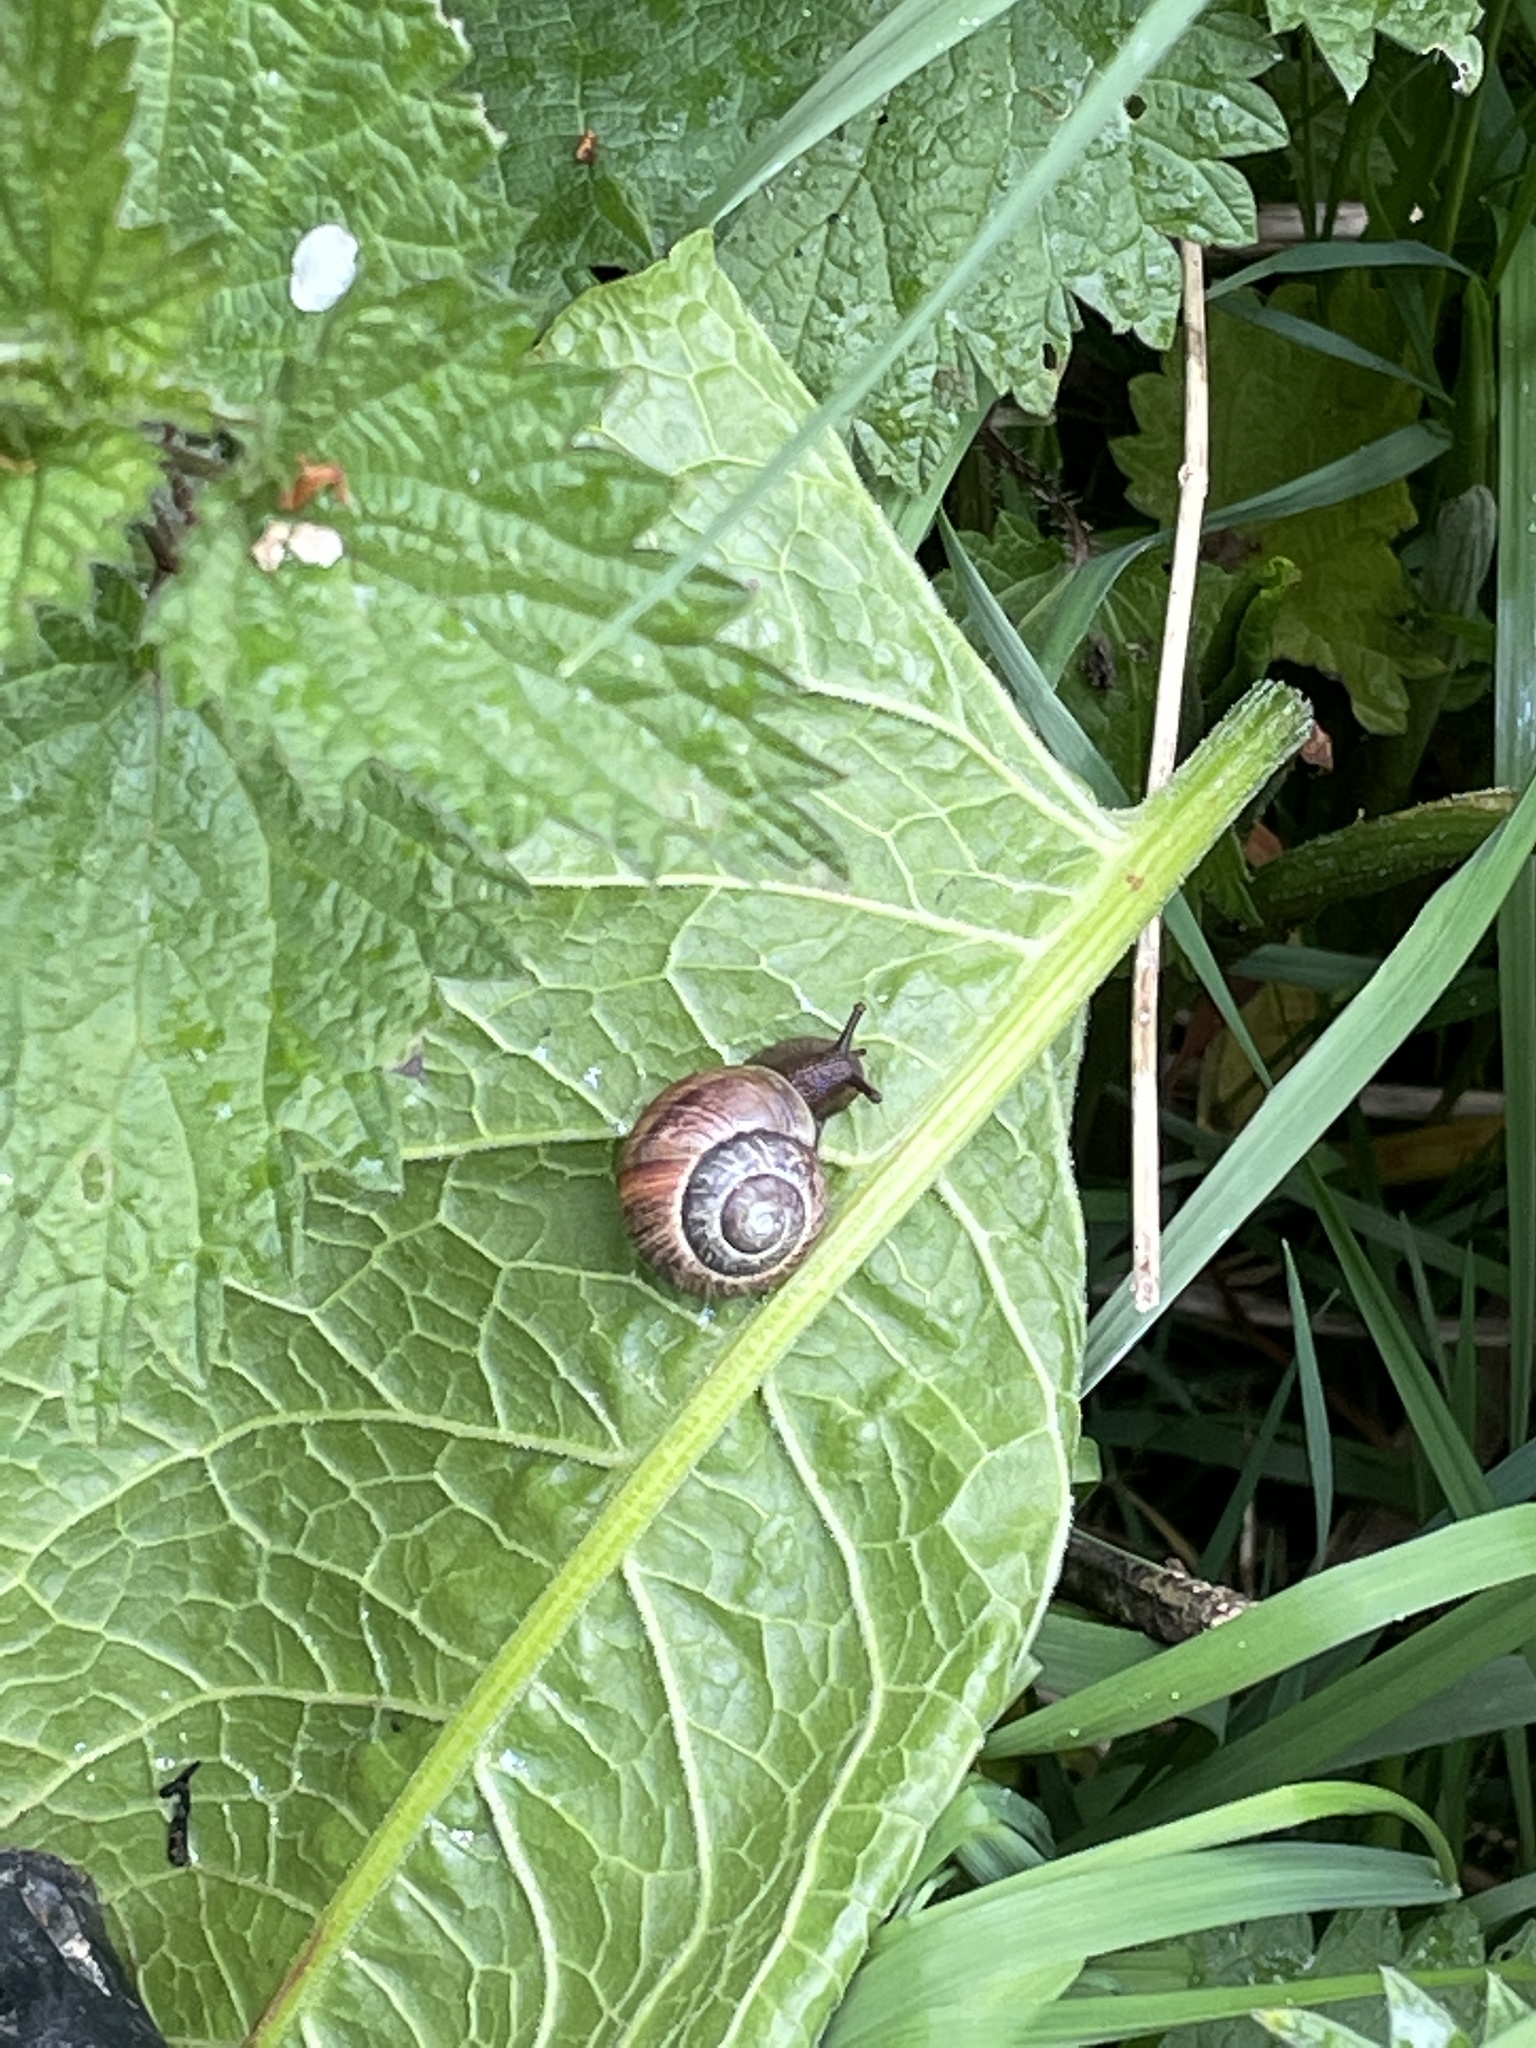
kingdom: Animalia
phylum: Mollusca
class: Gastropoda
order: Stylommatophora
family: Helicidae
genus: Arianta
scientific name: Arianta arbustorum
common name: Copse snail
